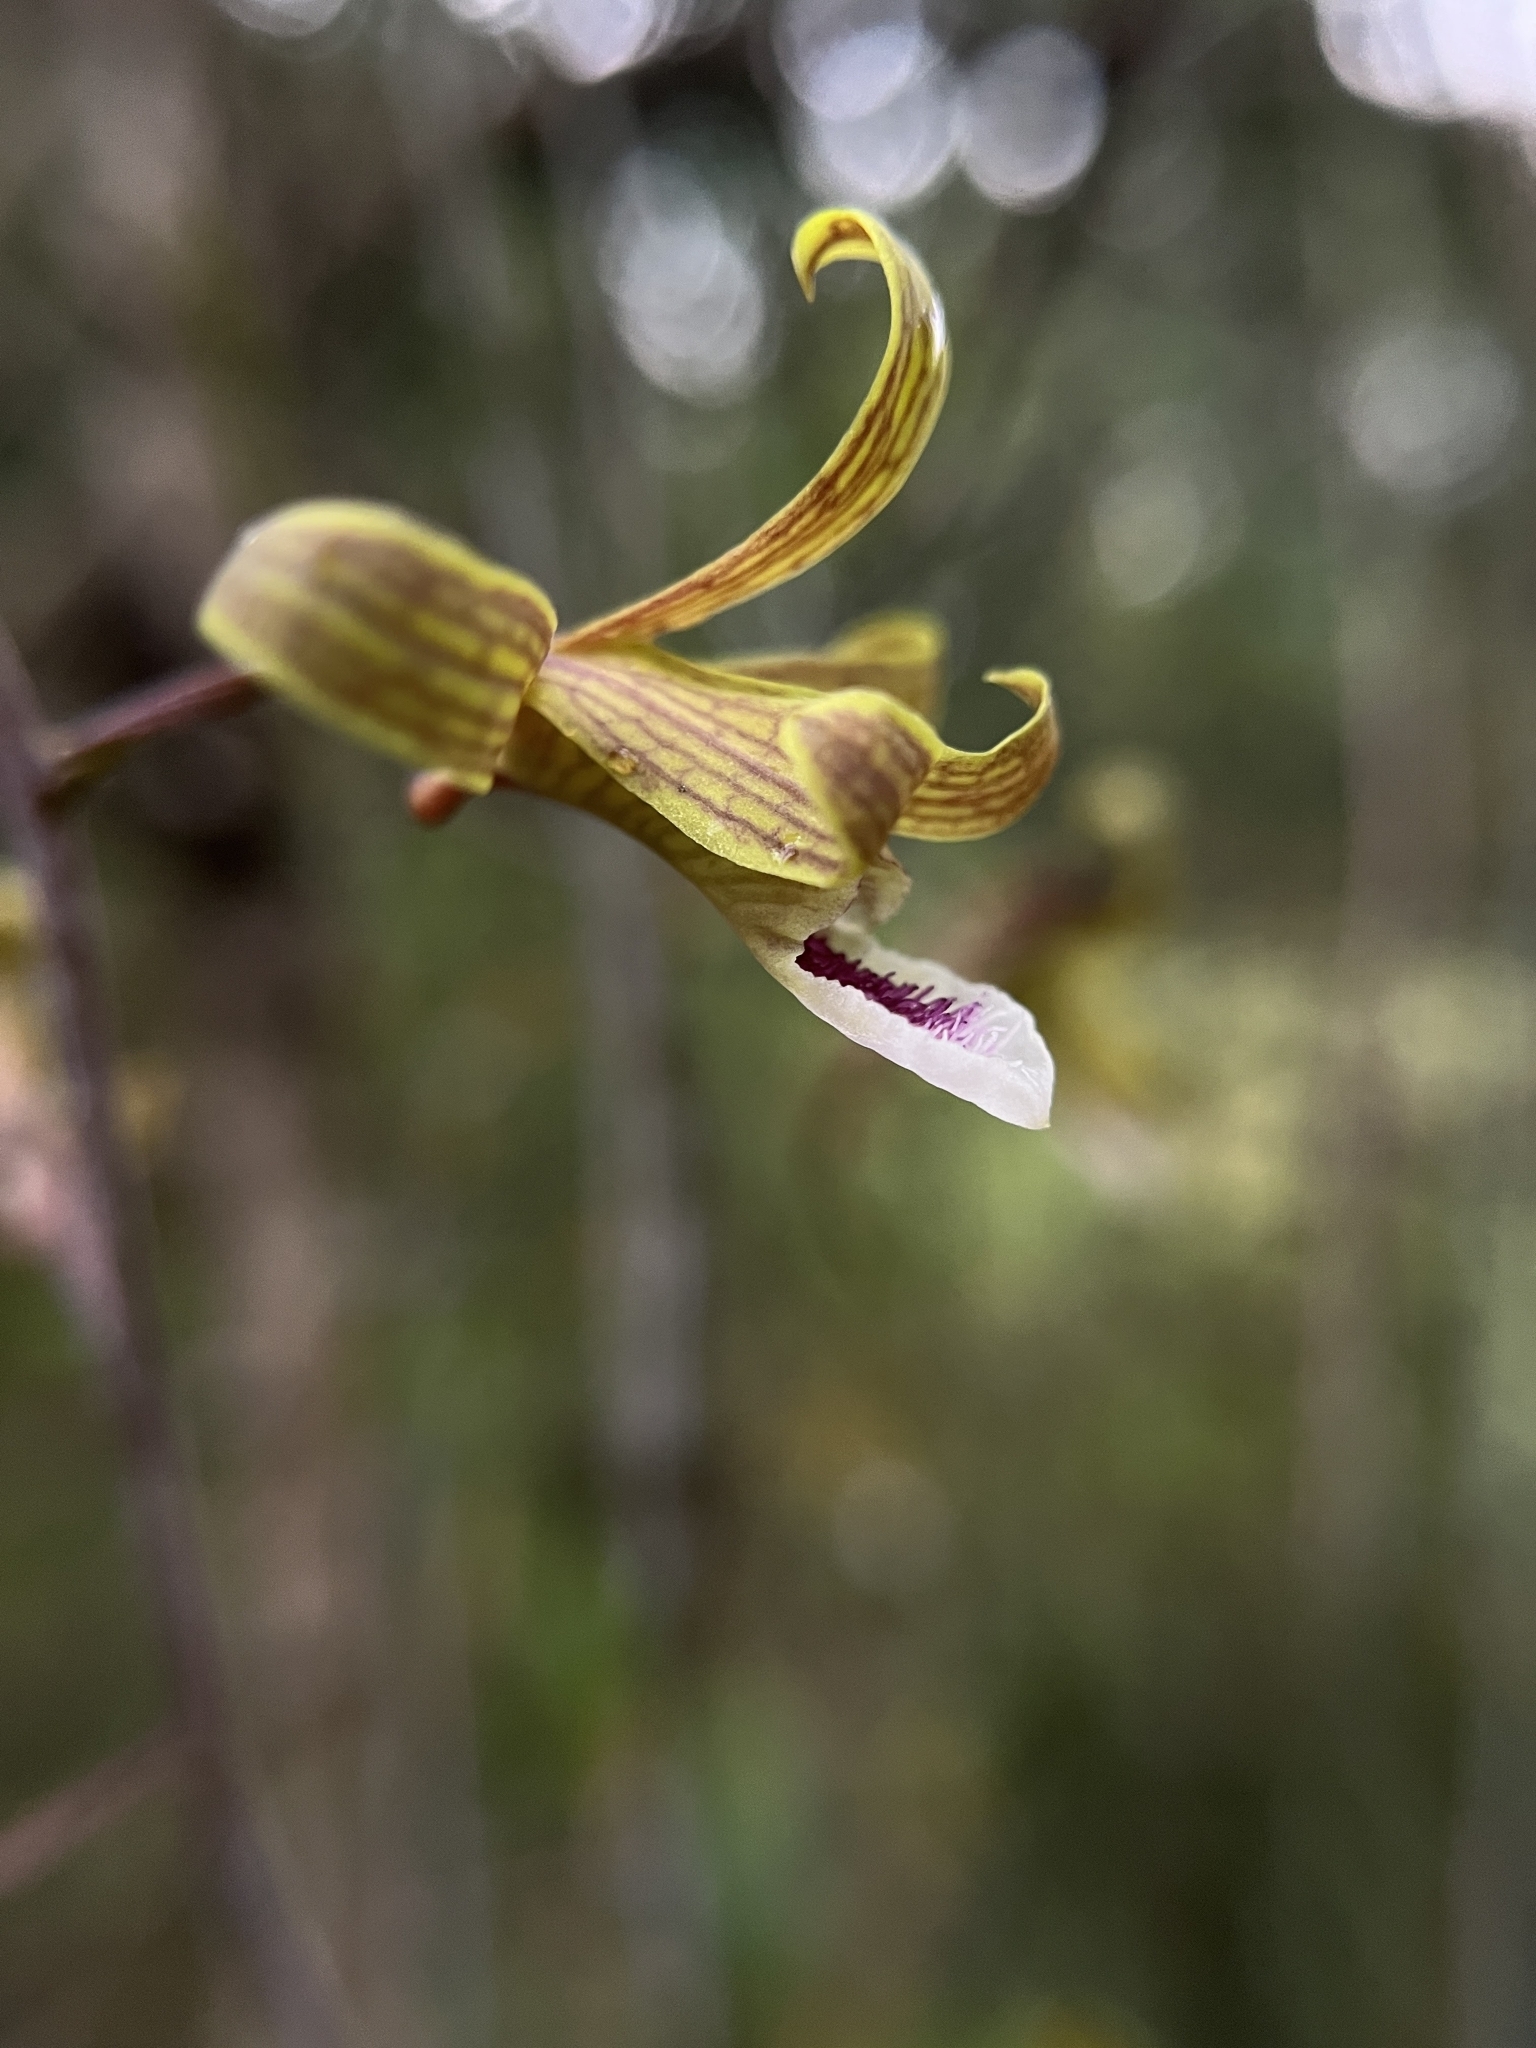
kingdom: Plantae
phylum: Tracheophyta
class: Liliopsida
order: Asparagales
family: Orchidaceae
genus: Eulophia
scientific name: Eulophia epidendraea
